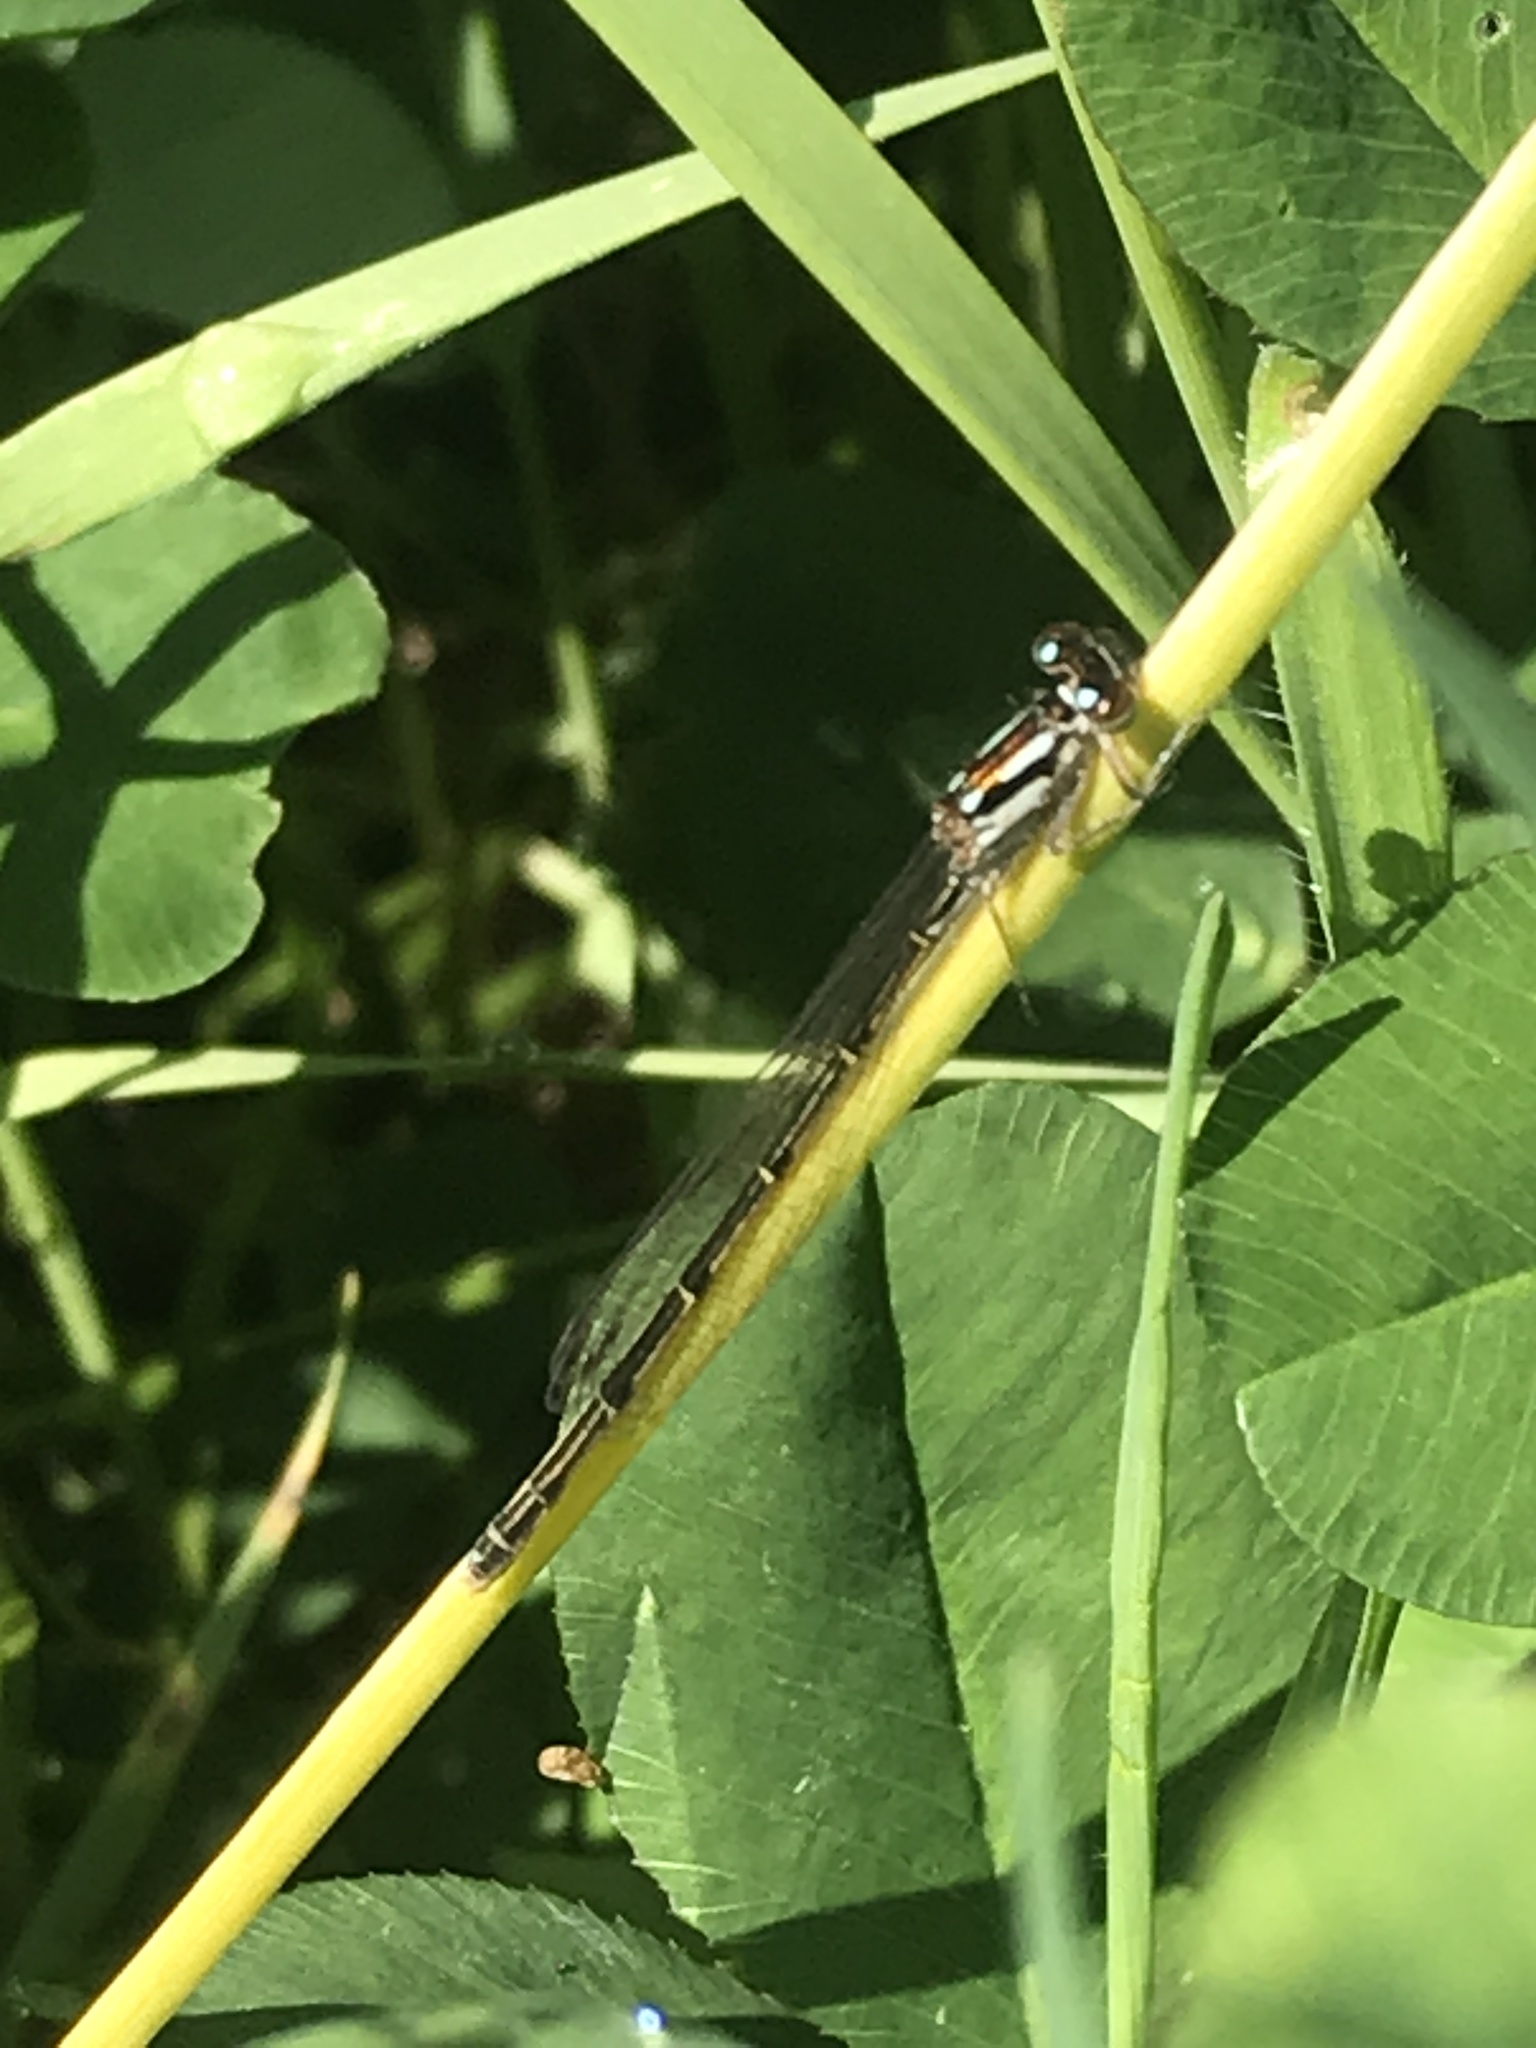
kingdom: Animalia
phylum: Arthropoda
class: Insecta
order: Odonata
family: Coenagrionidae
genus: Ischnura
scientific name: Ischnura posita
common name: Fragile forktail
